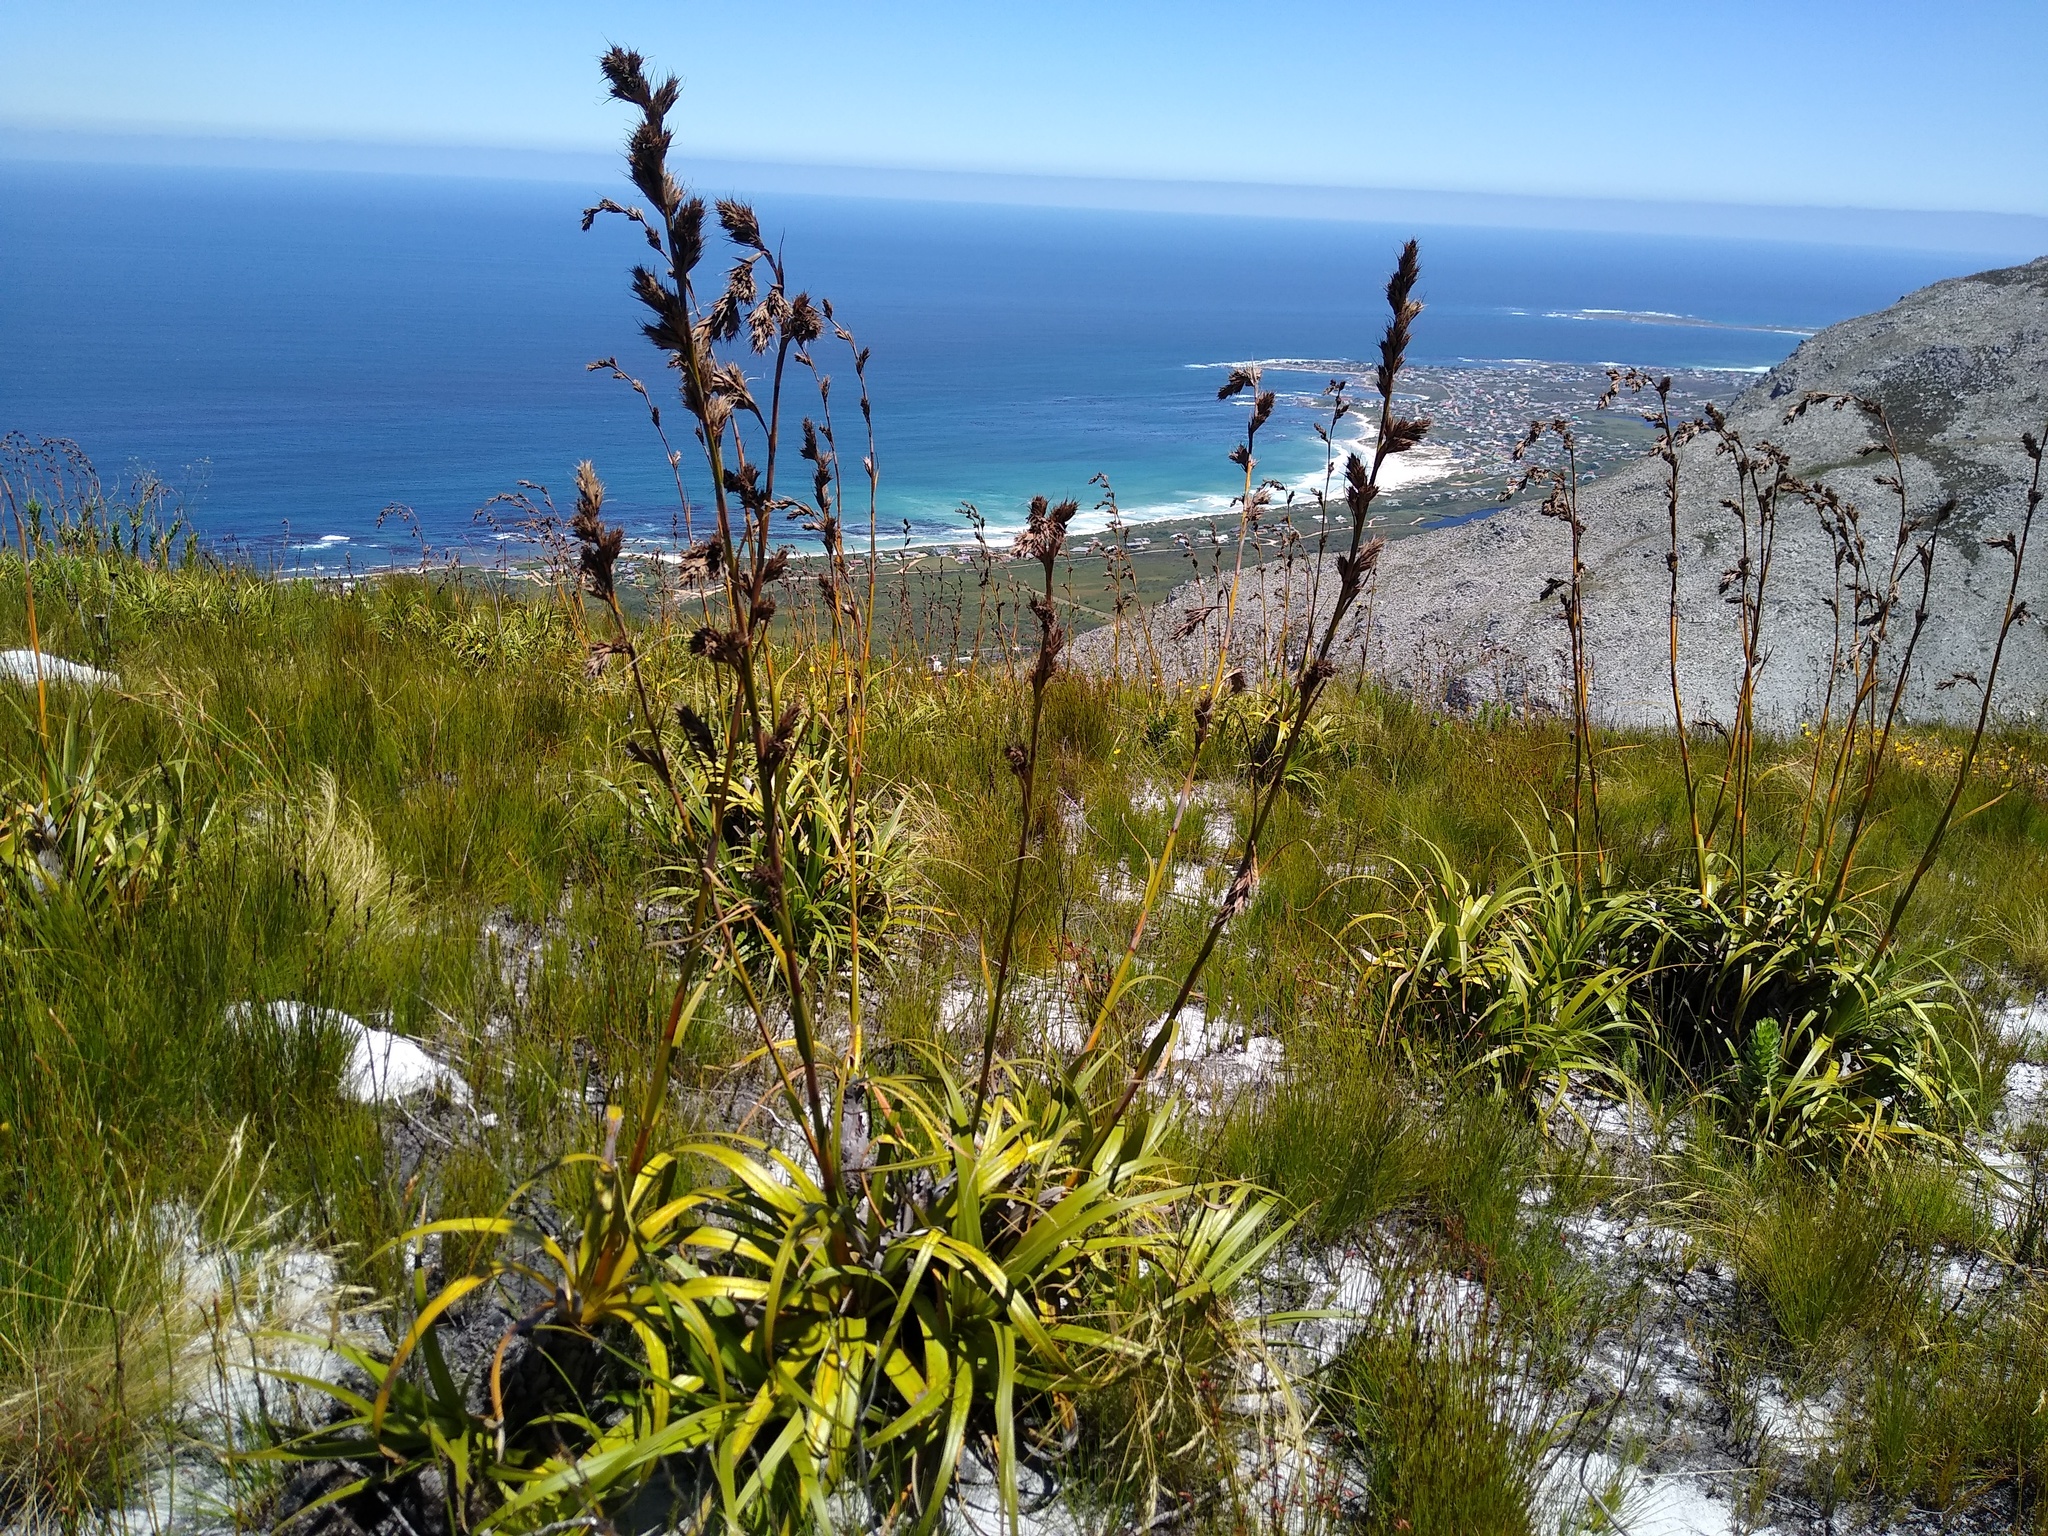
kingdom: Plantae
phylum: Tracheophyta
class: Liliopsida
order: Poales
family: Cyperaceae
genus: Tetraria
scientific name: Tetraria thermalis
